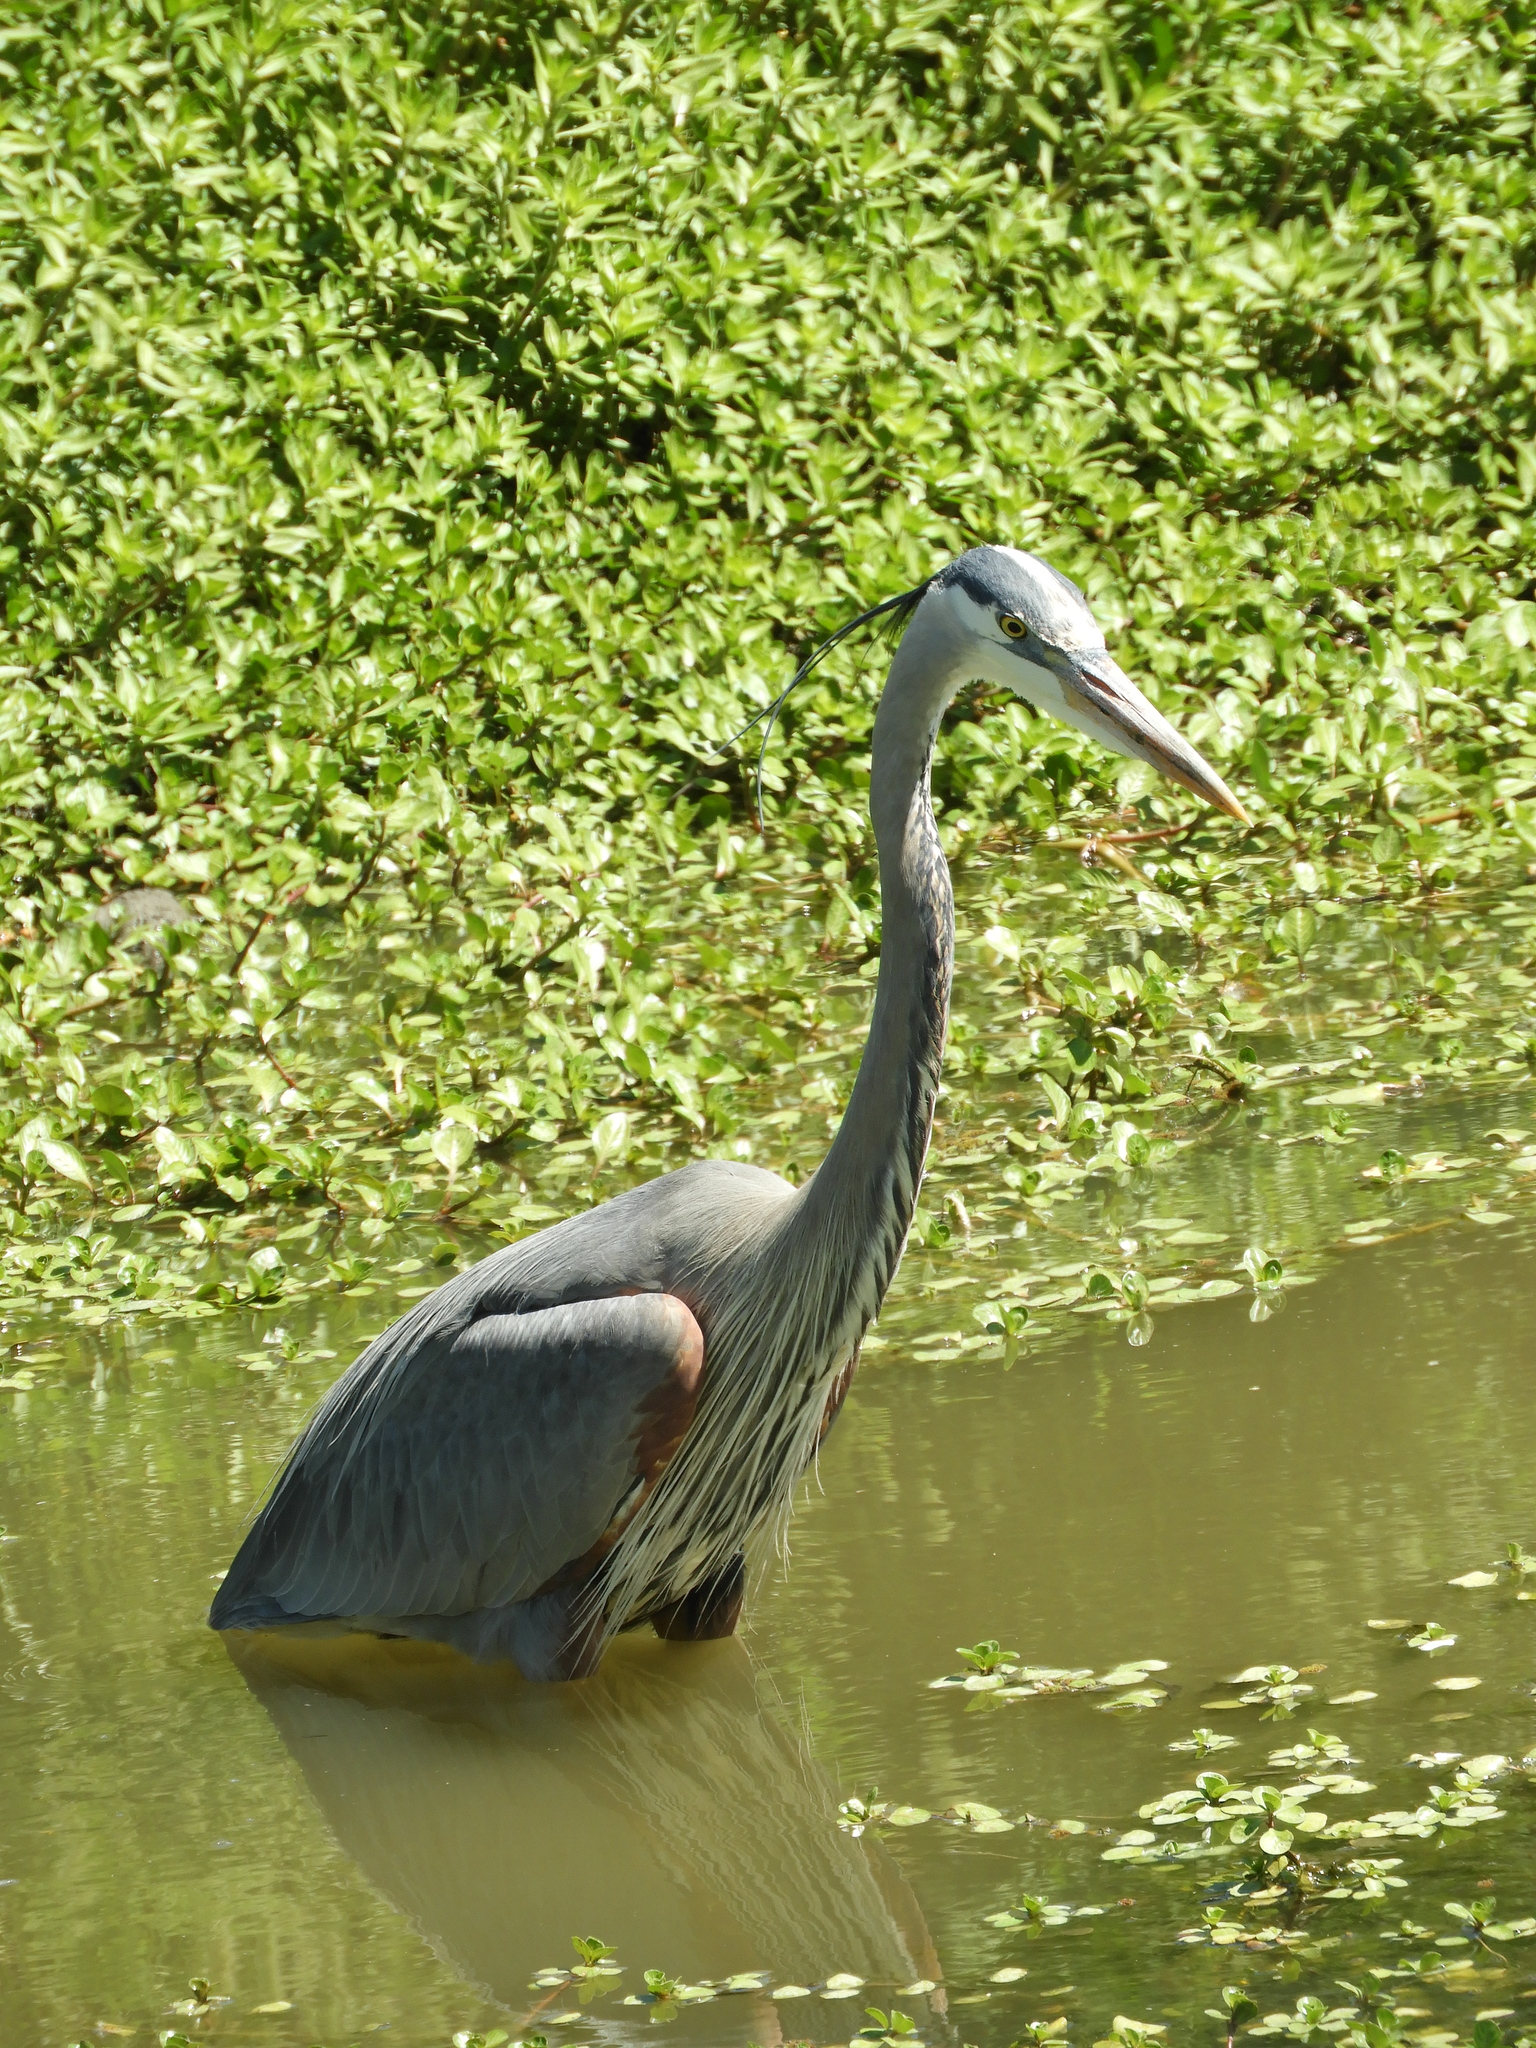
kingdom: Animalia
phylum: Chordata
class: Aves
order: Pelecaniformes
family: Ardeidae
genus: Ardea
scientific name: Ardea herodias
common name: Great blue heron
